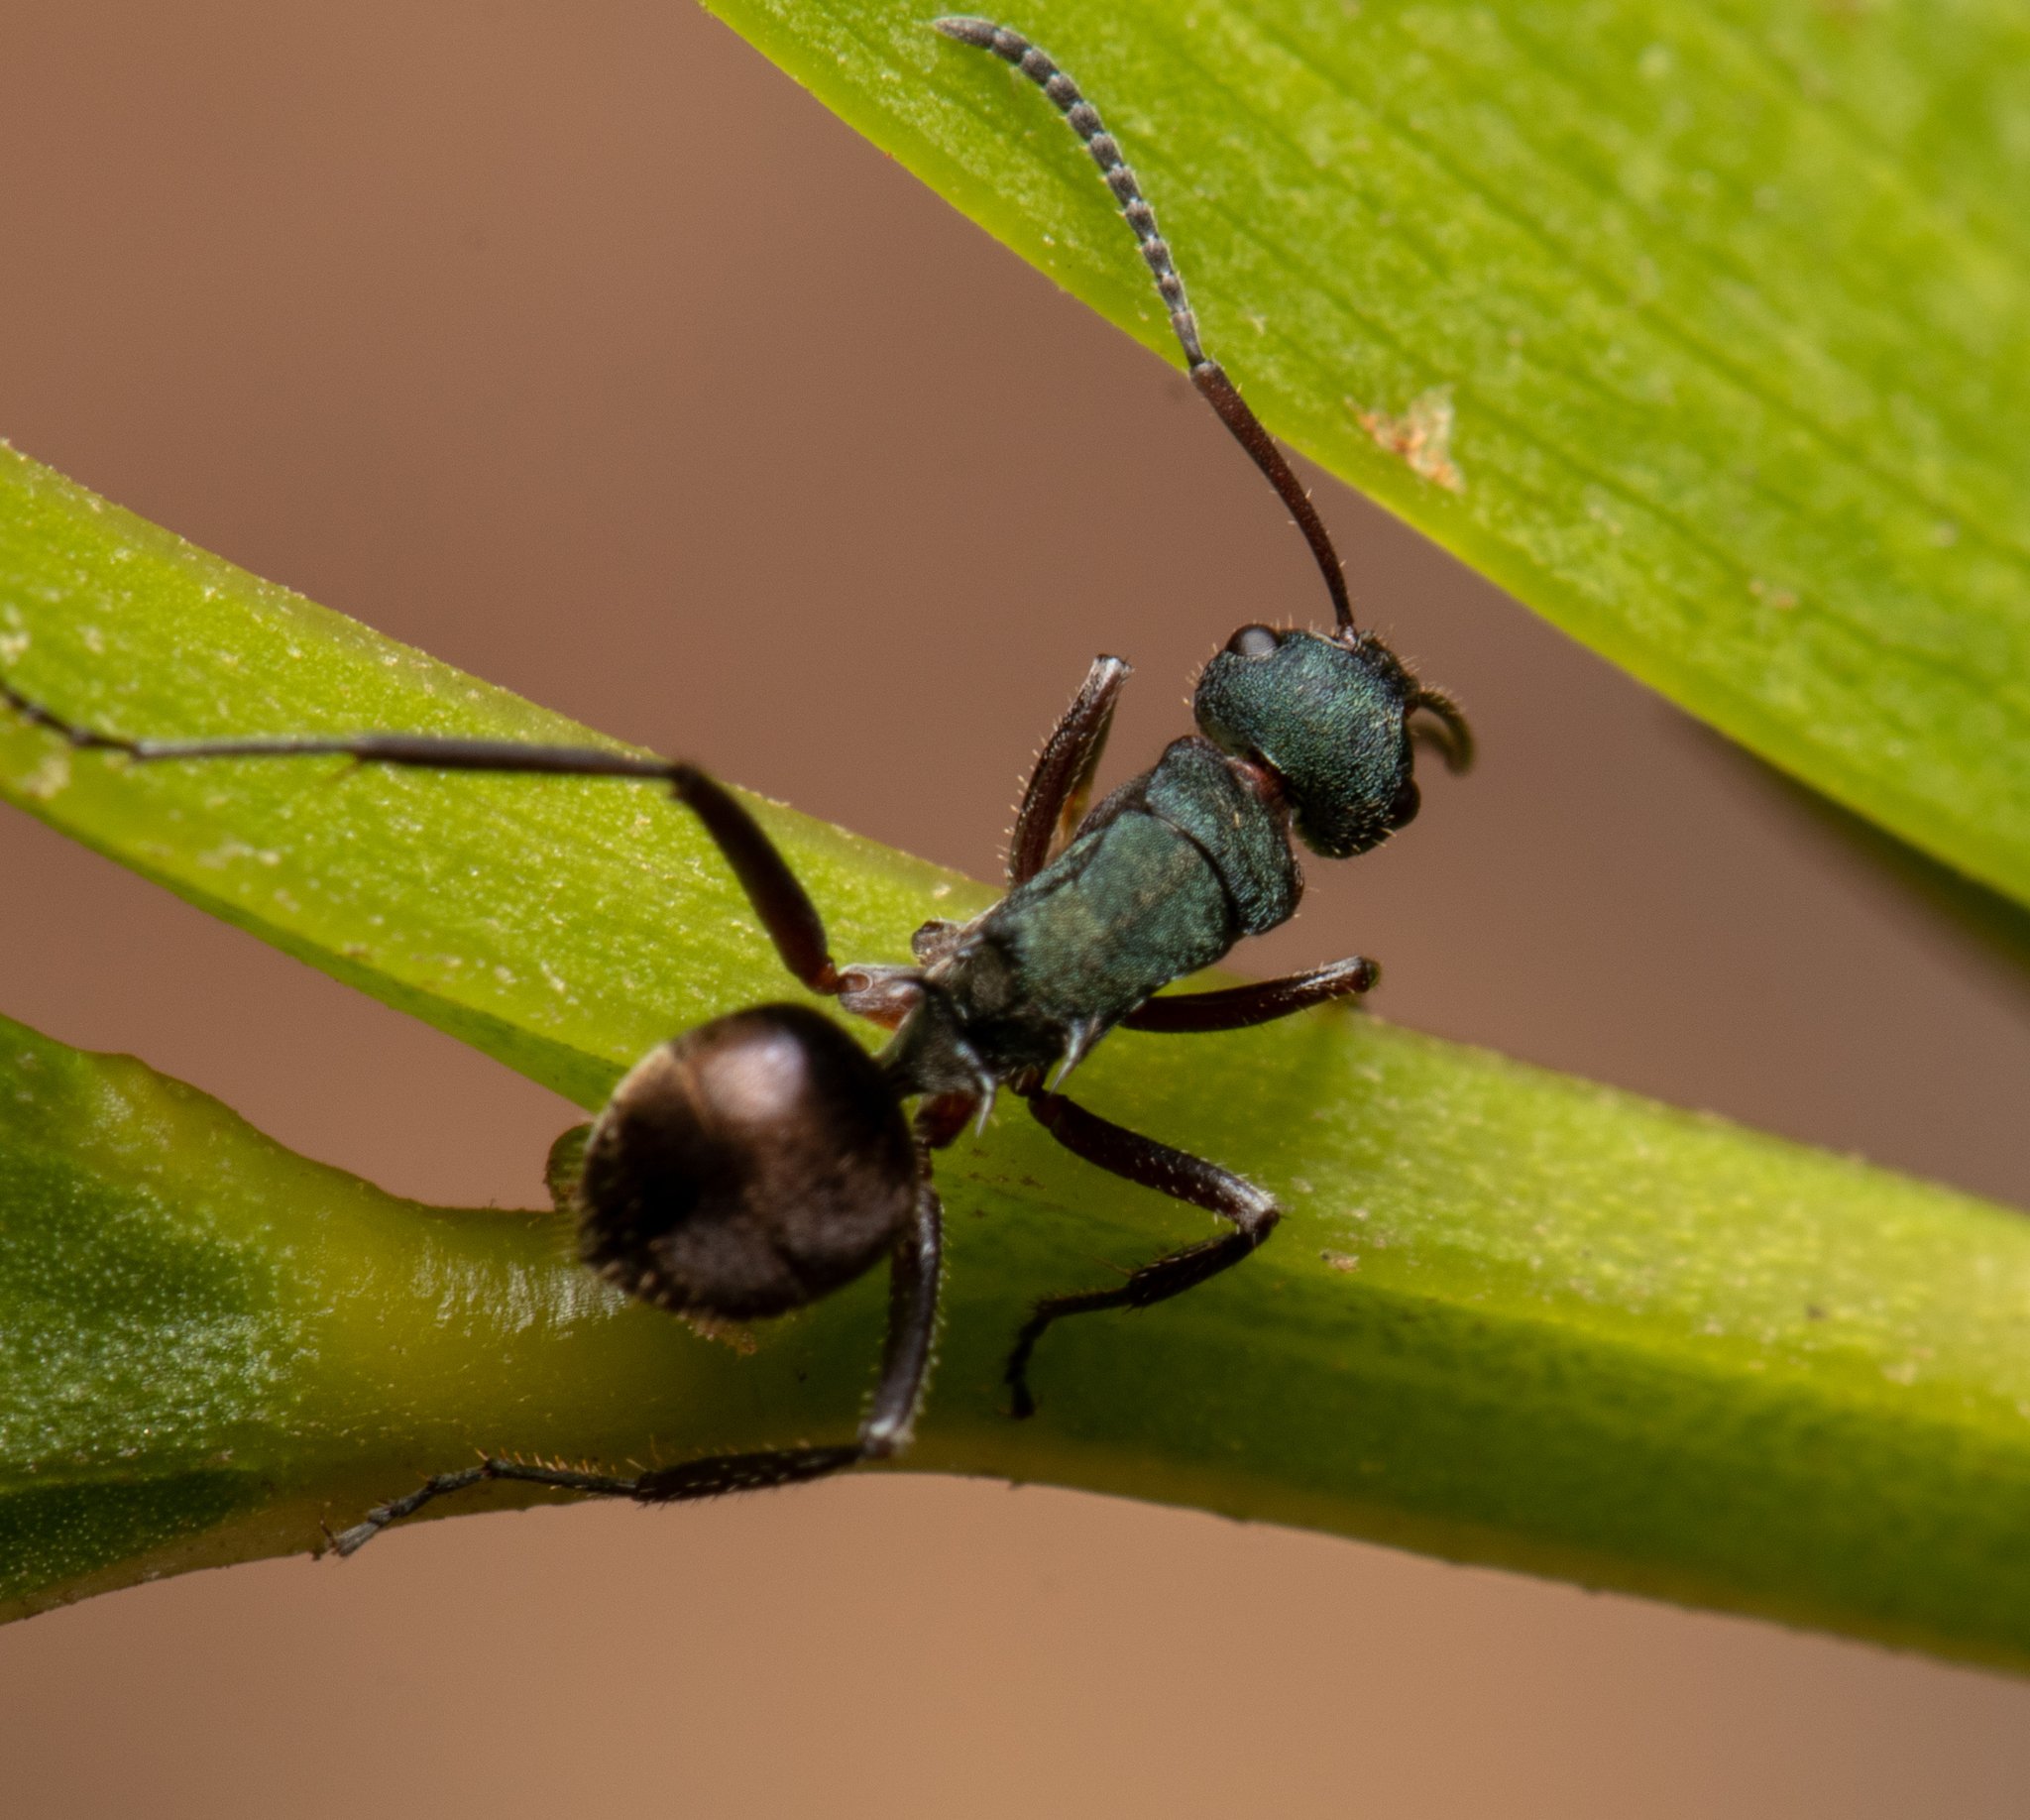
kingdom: Animalia
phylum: Arthropoda
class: Insecta
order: Hymenoptera
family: Formicidae
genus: Polyrhachis
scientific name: Polyrhachis lydiae
